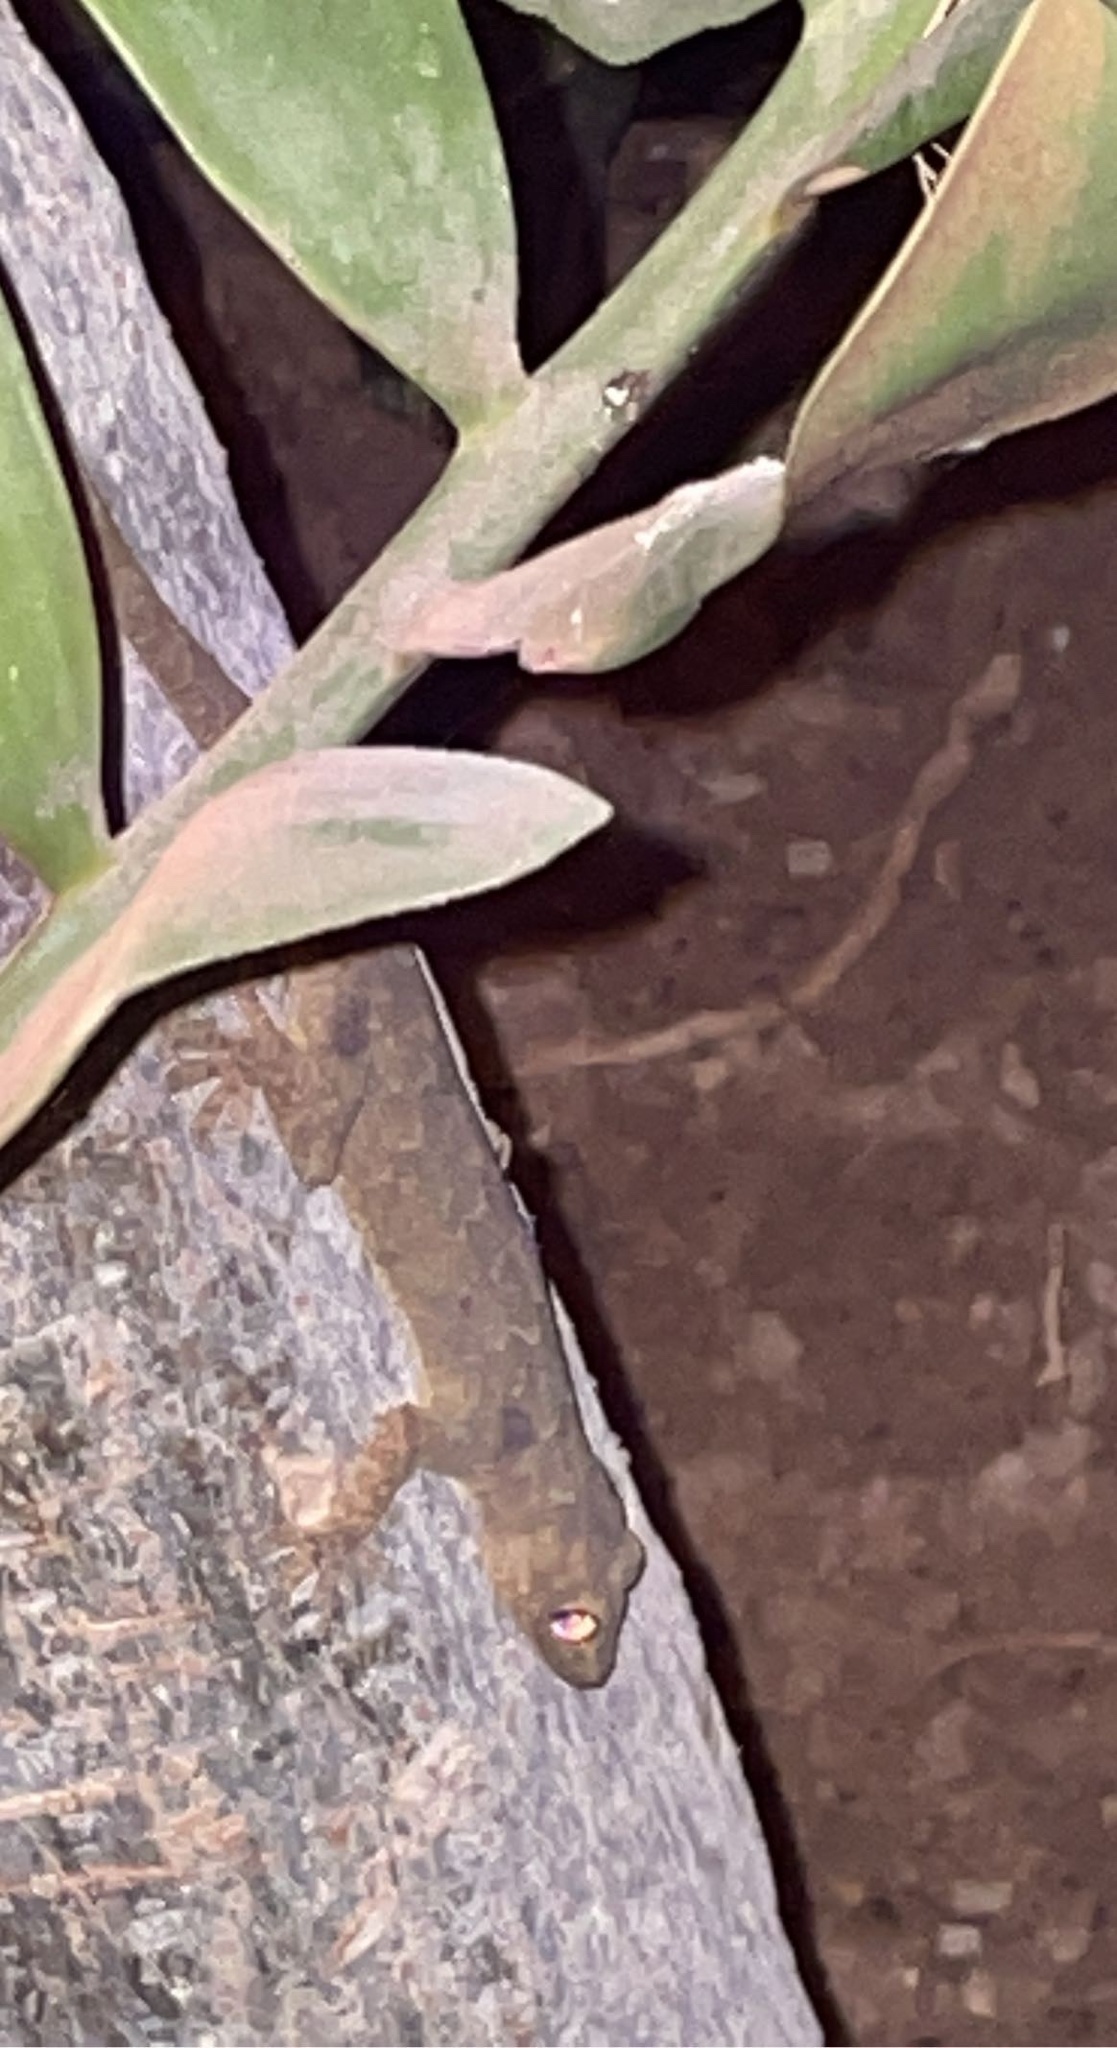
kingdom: Animalia
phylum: Chordata
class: Squamata
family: Gekkonidae
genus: Hemidactylus
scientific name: Hemidactylus flaviviridis
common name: Northern house gecko
